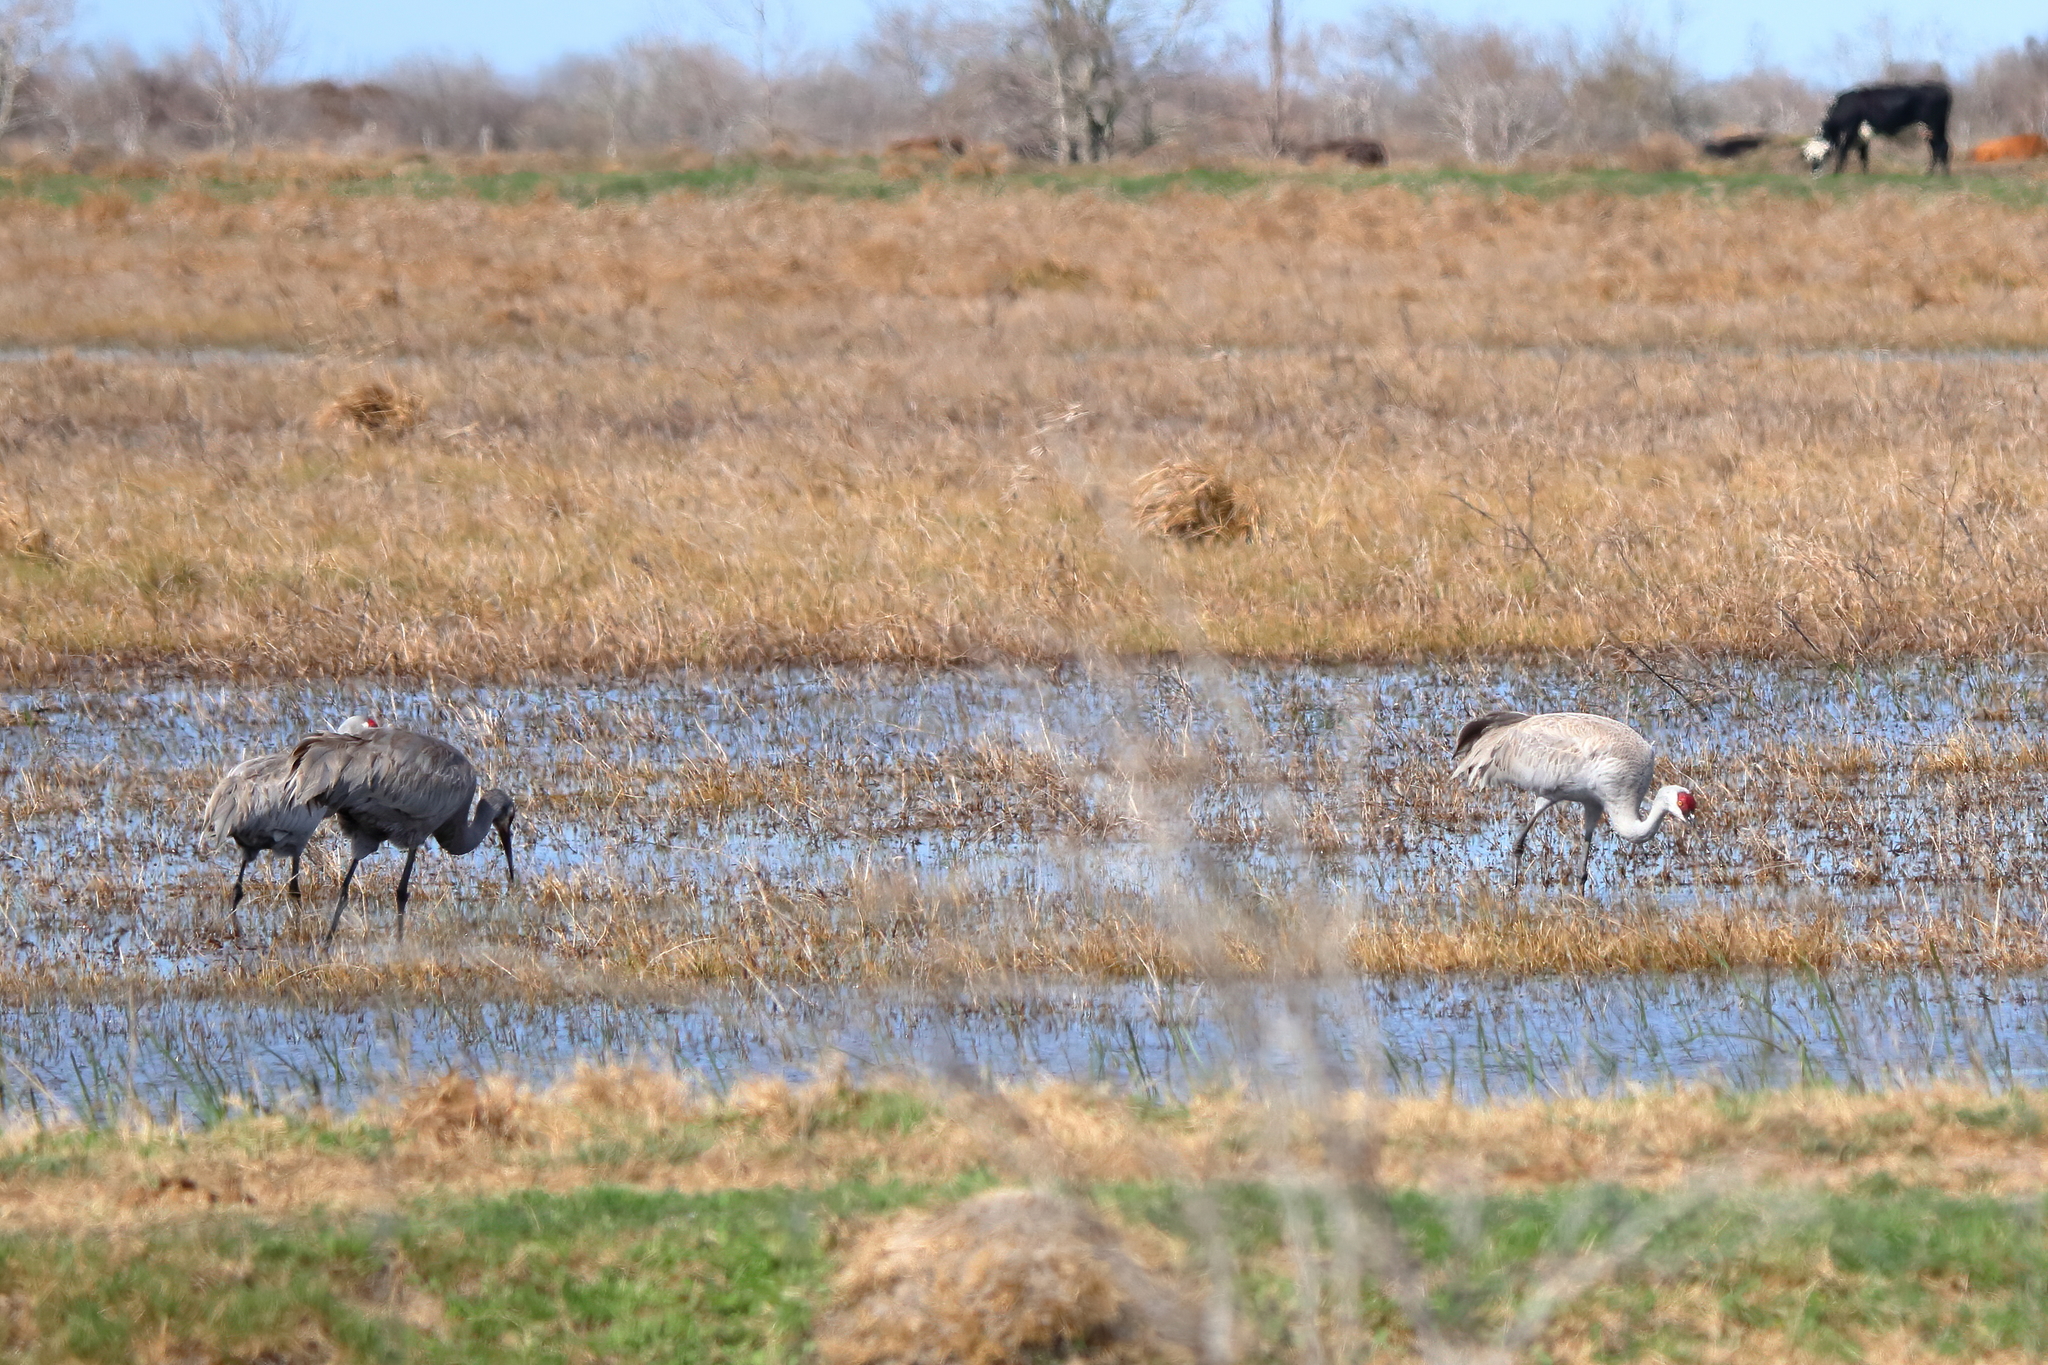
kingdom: Animalia
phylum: Chordata
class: Aves
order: Gruiformes
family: Gruidae
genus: Grus
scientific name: Grus canadensis
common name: Sandhill crane
